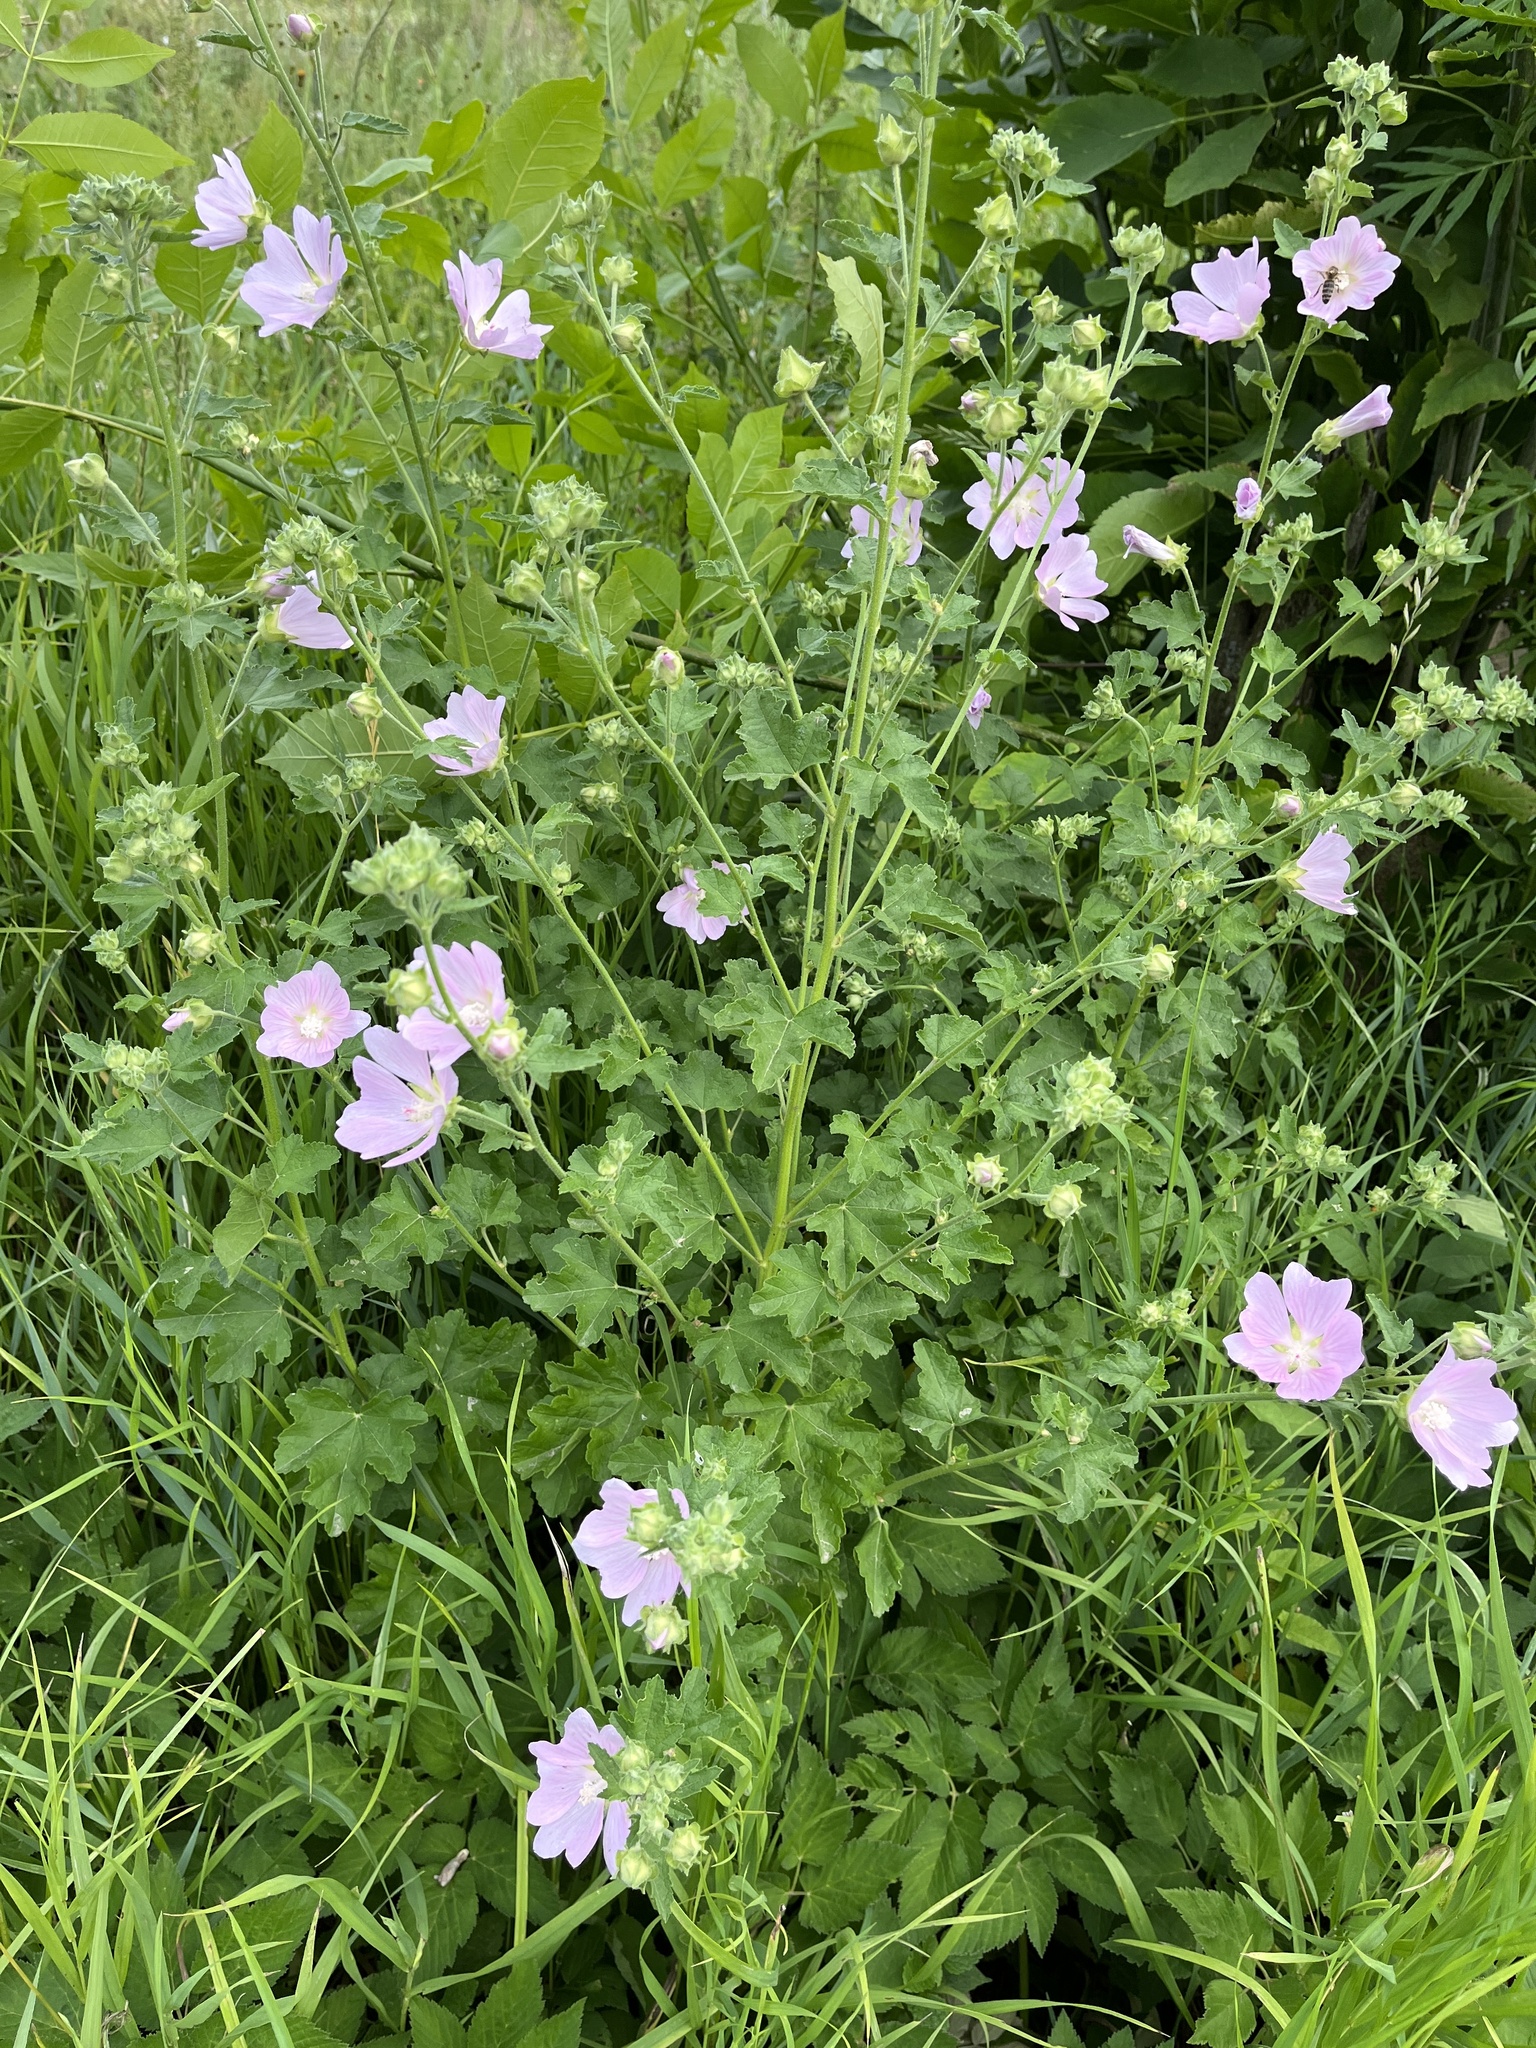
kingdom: Plantae
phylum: Tracheophyta
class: Magnoliopsida
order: Malvales
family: Malvaceae
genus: Malva
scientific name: Malva thuringiaca
